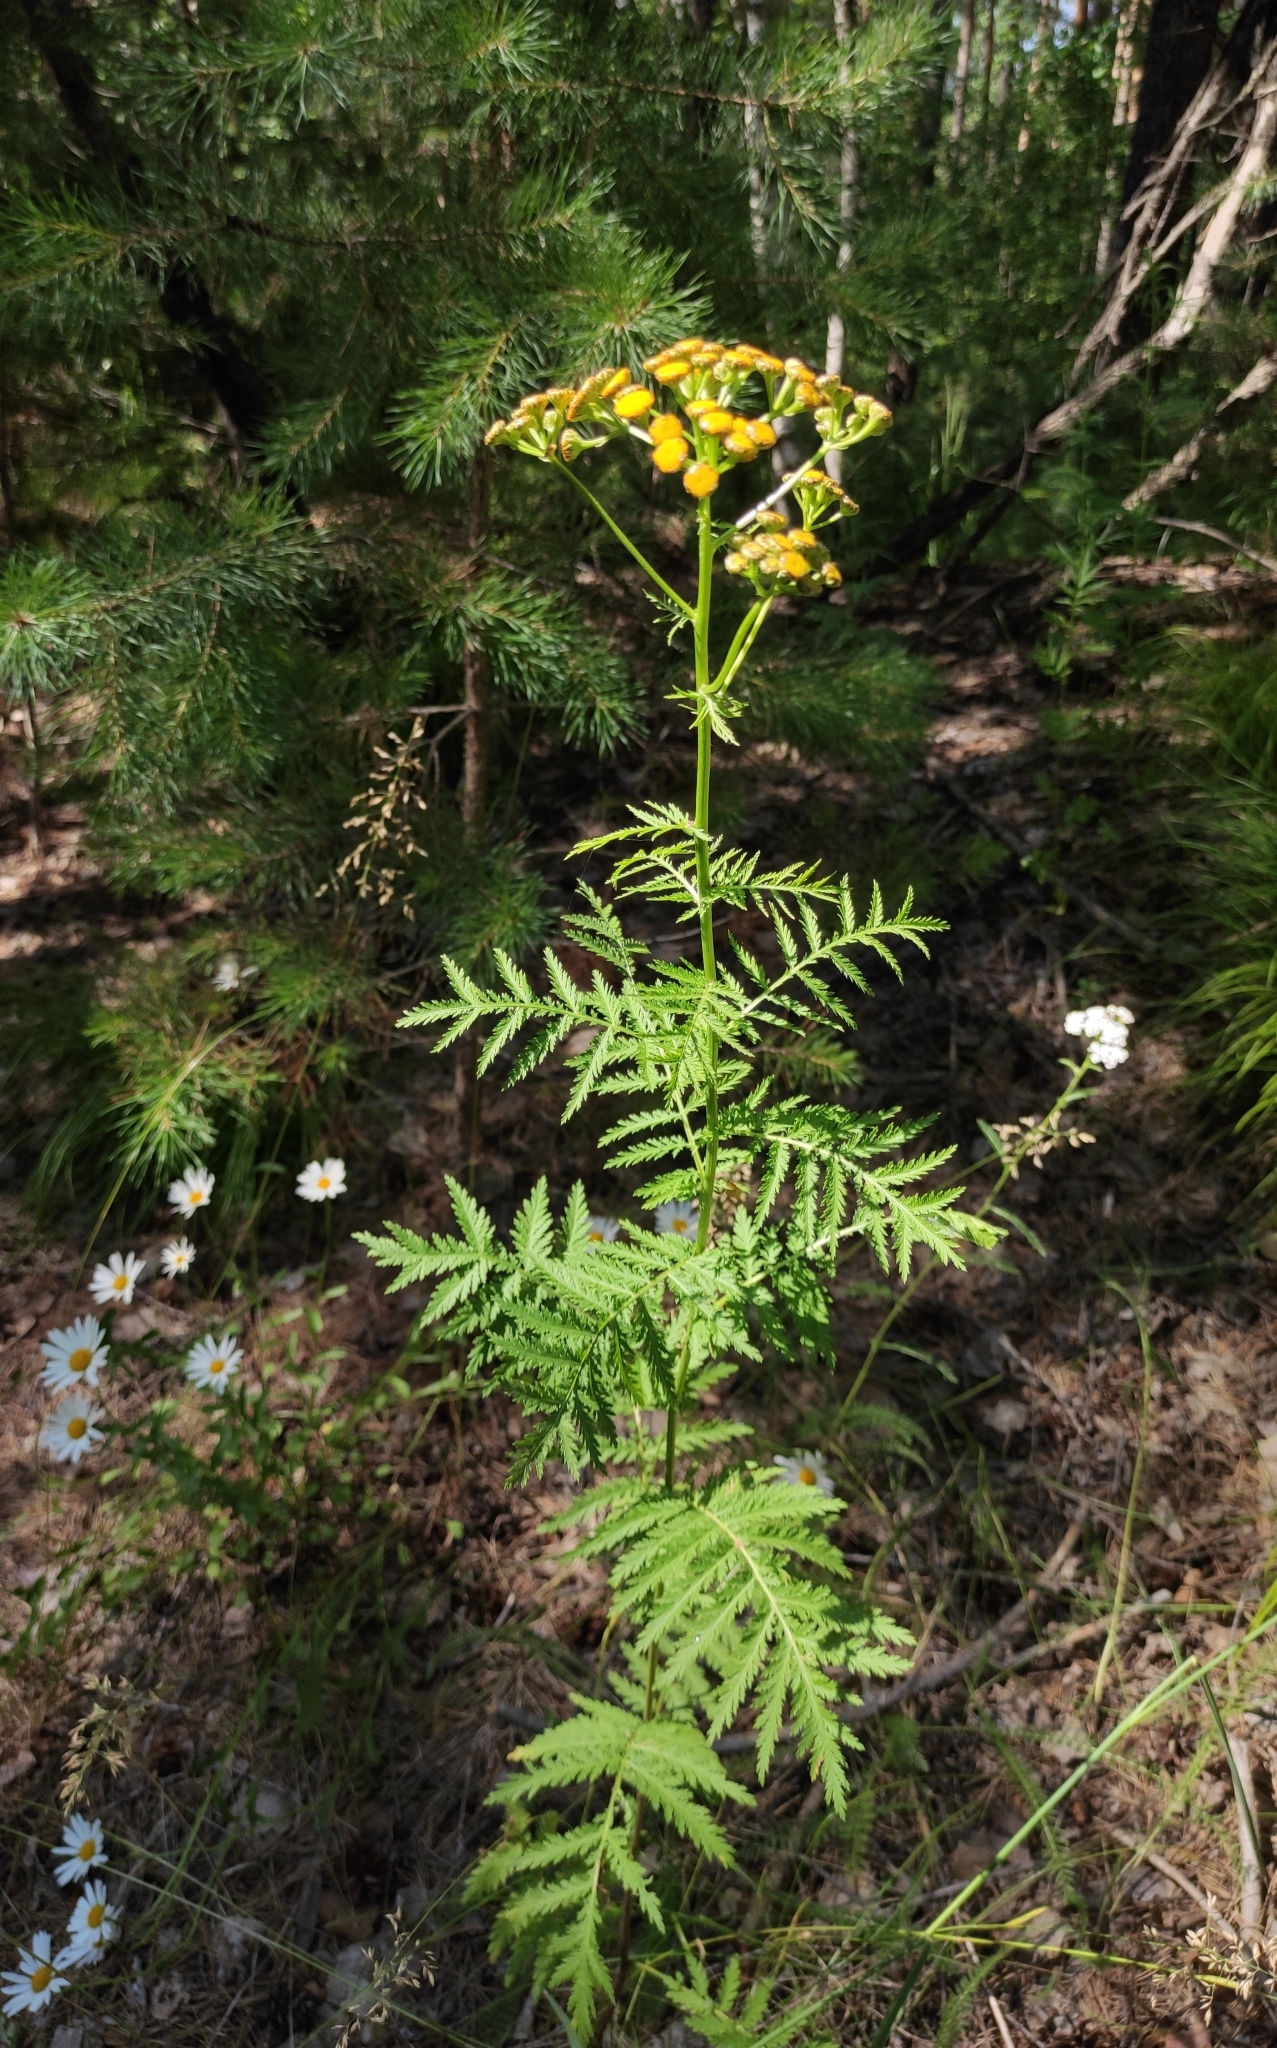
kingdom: Plantae
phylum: Tracheophyta
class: Magnoliopsida
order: Asterales
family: Asteraceae
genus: Tanacetum
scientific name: Tanacetum vulgare
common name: Common tansy
